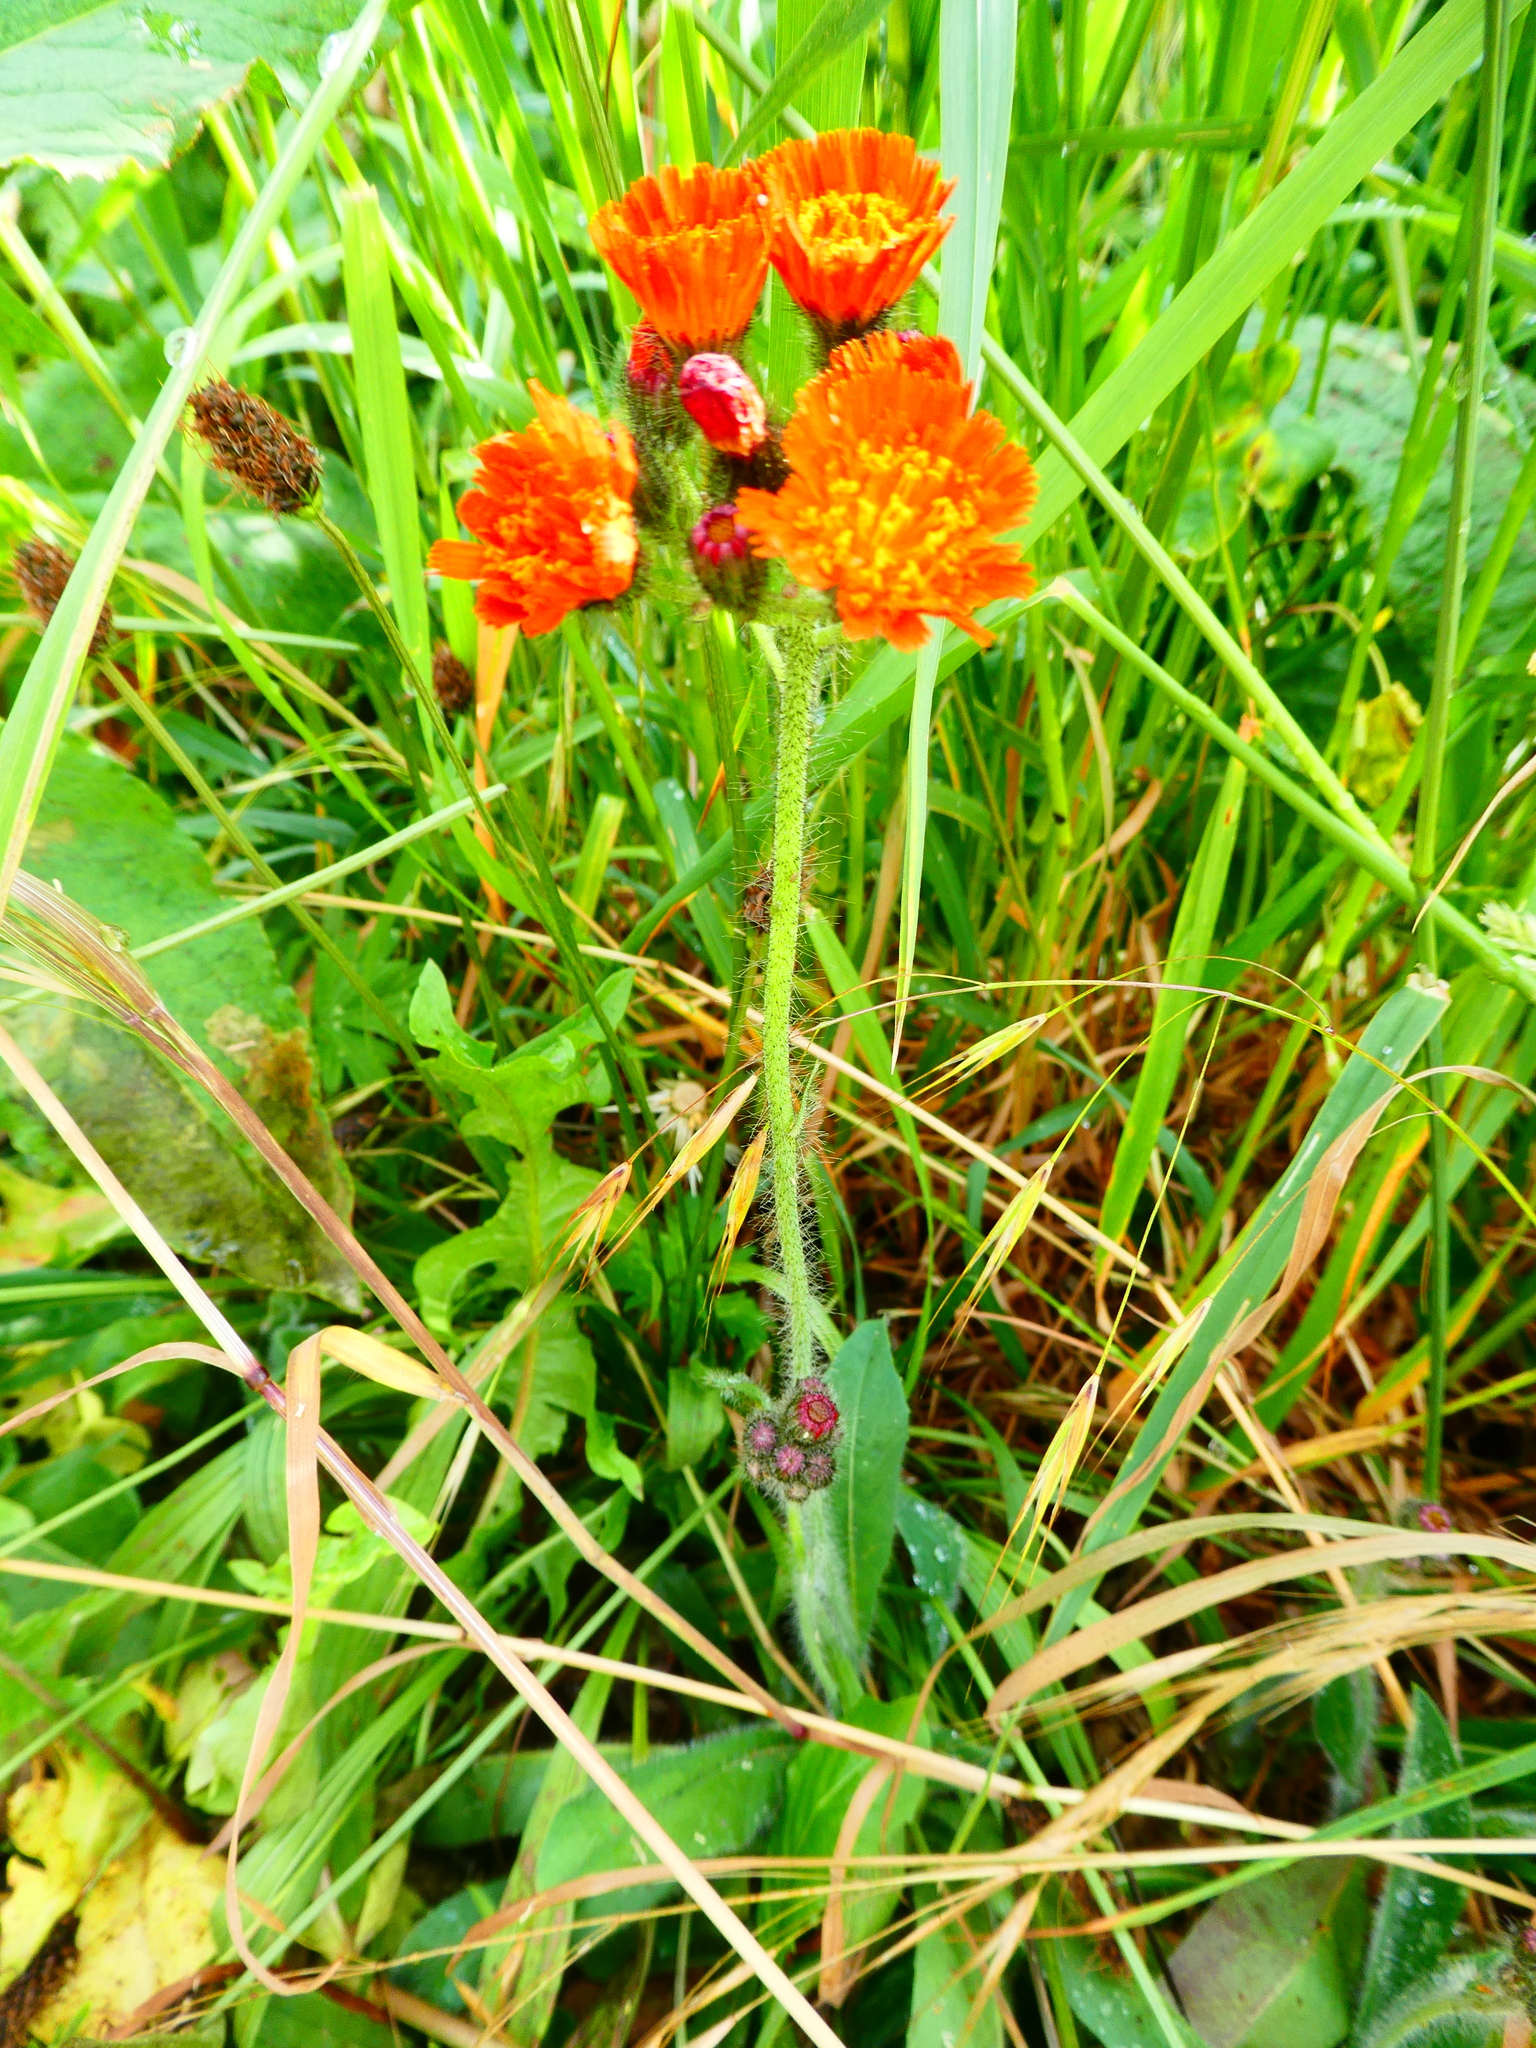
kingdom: Plantae
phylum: Tracheophyta
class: Magnoliopsida
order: Asterales
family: Asteraceae
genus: Pilosella
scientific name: Pilosella aurantiaca
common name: Fox-and-cubs
